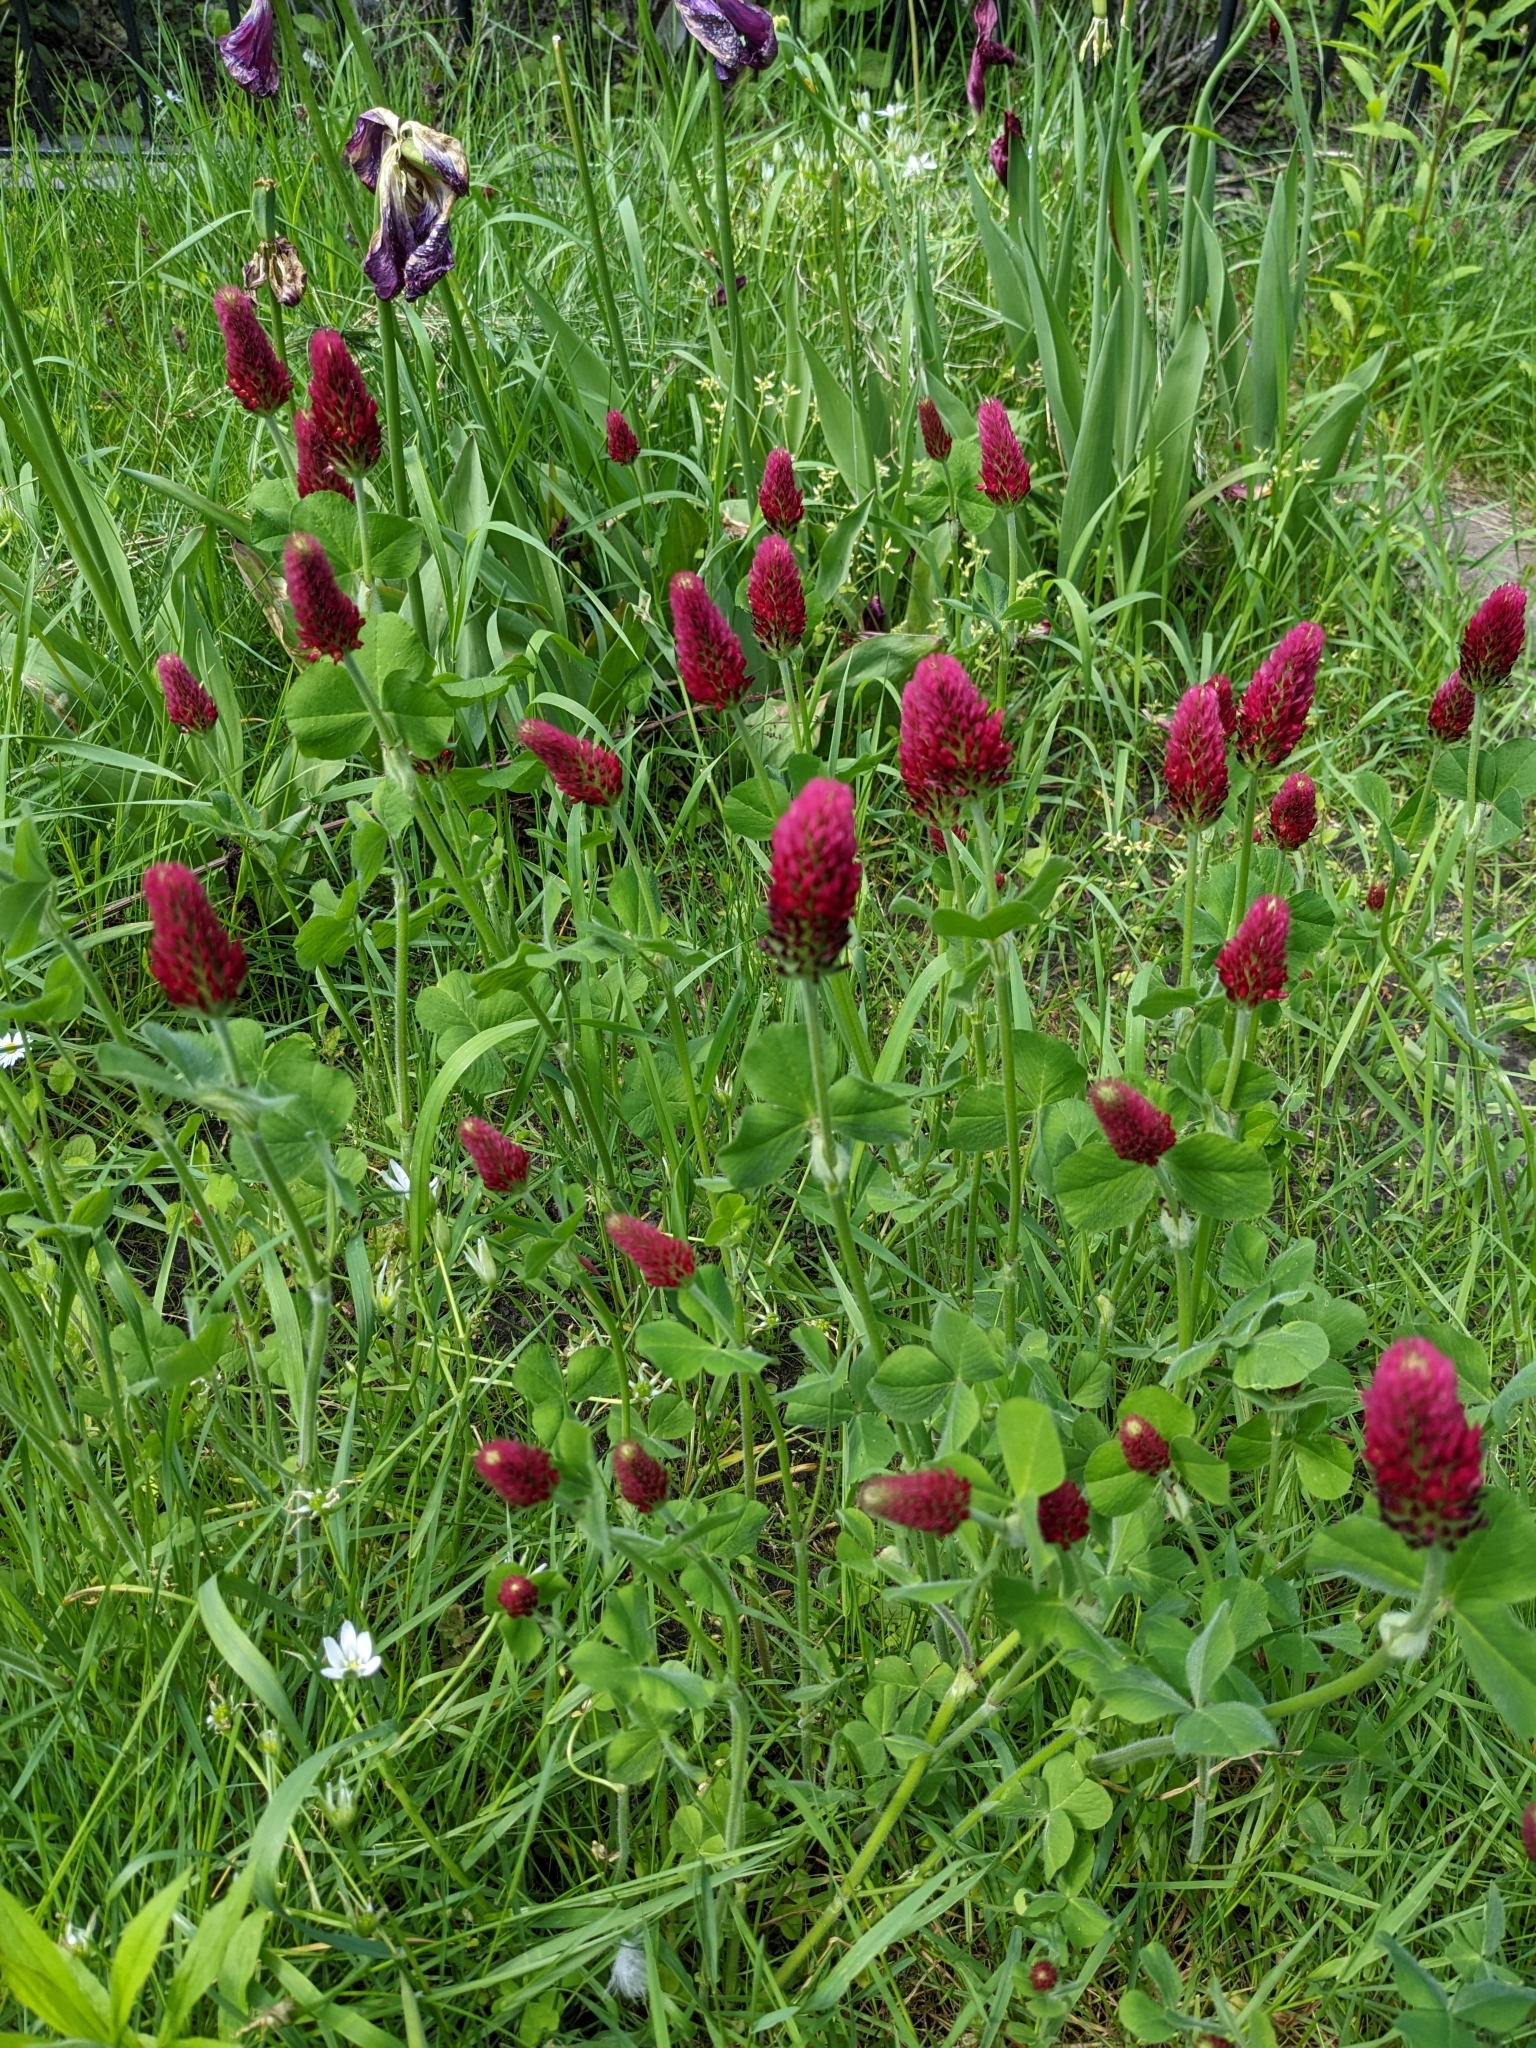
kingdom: Plantae
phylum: Tracheophyta
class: Magnoliopsida
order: Fabales
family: Fabaceae
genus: Trifolium
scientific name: Trifolium incarnatum
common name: Crimson clover
